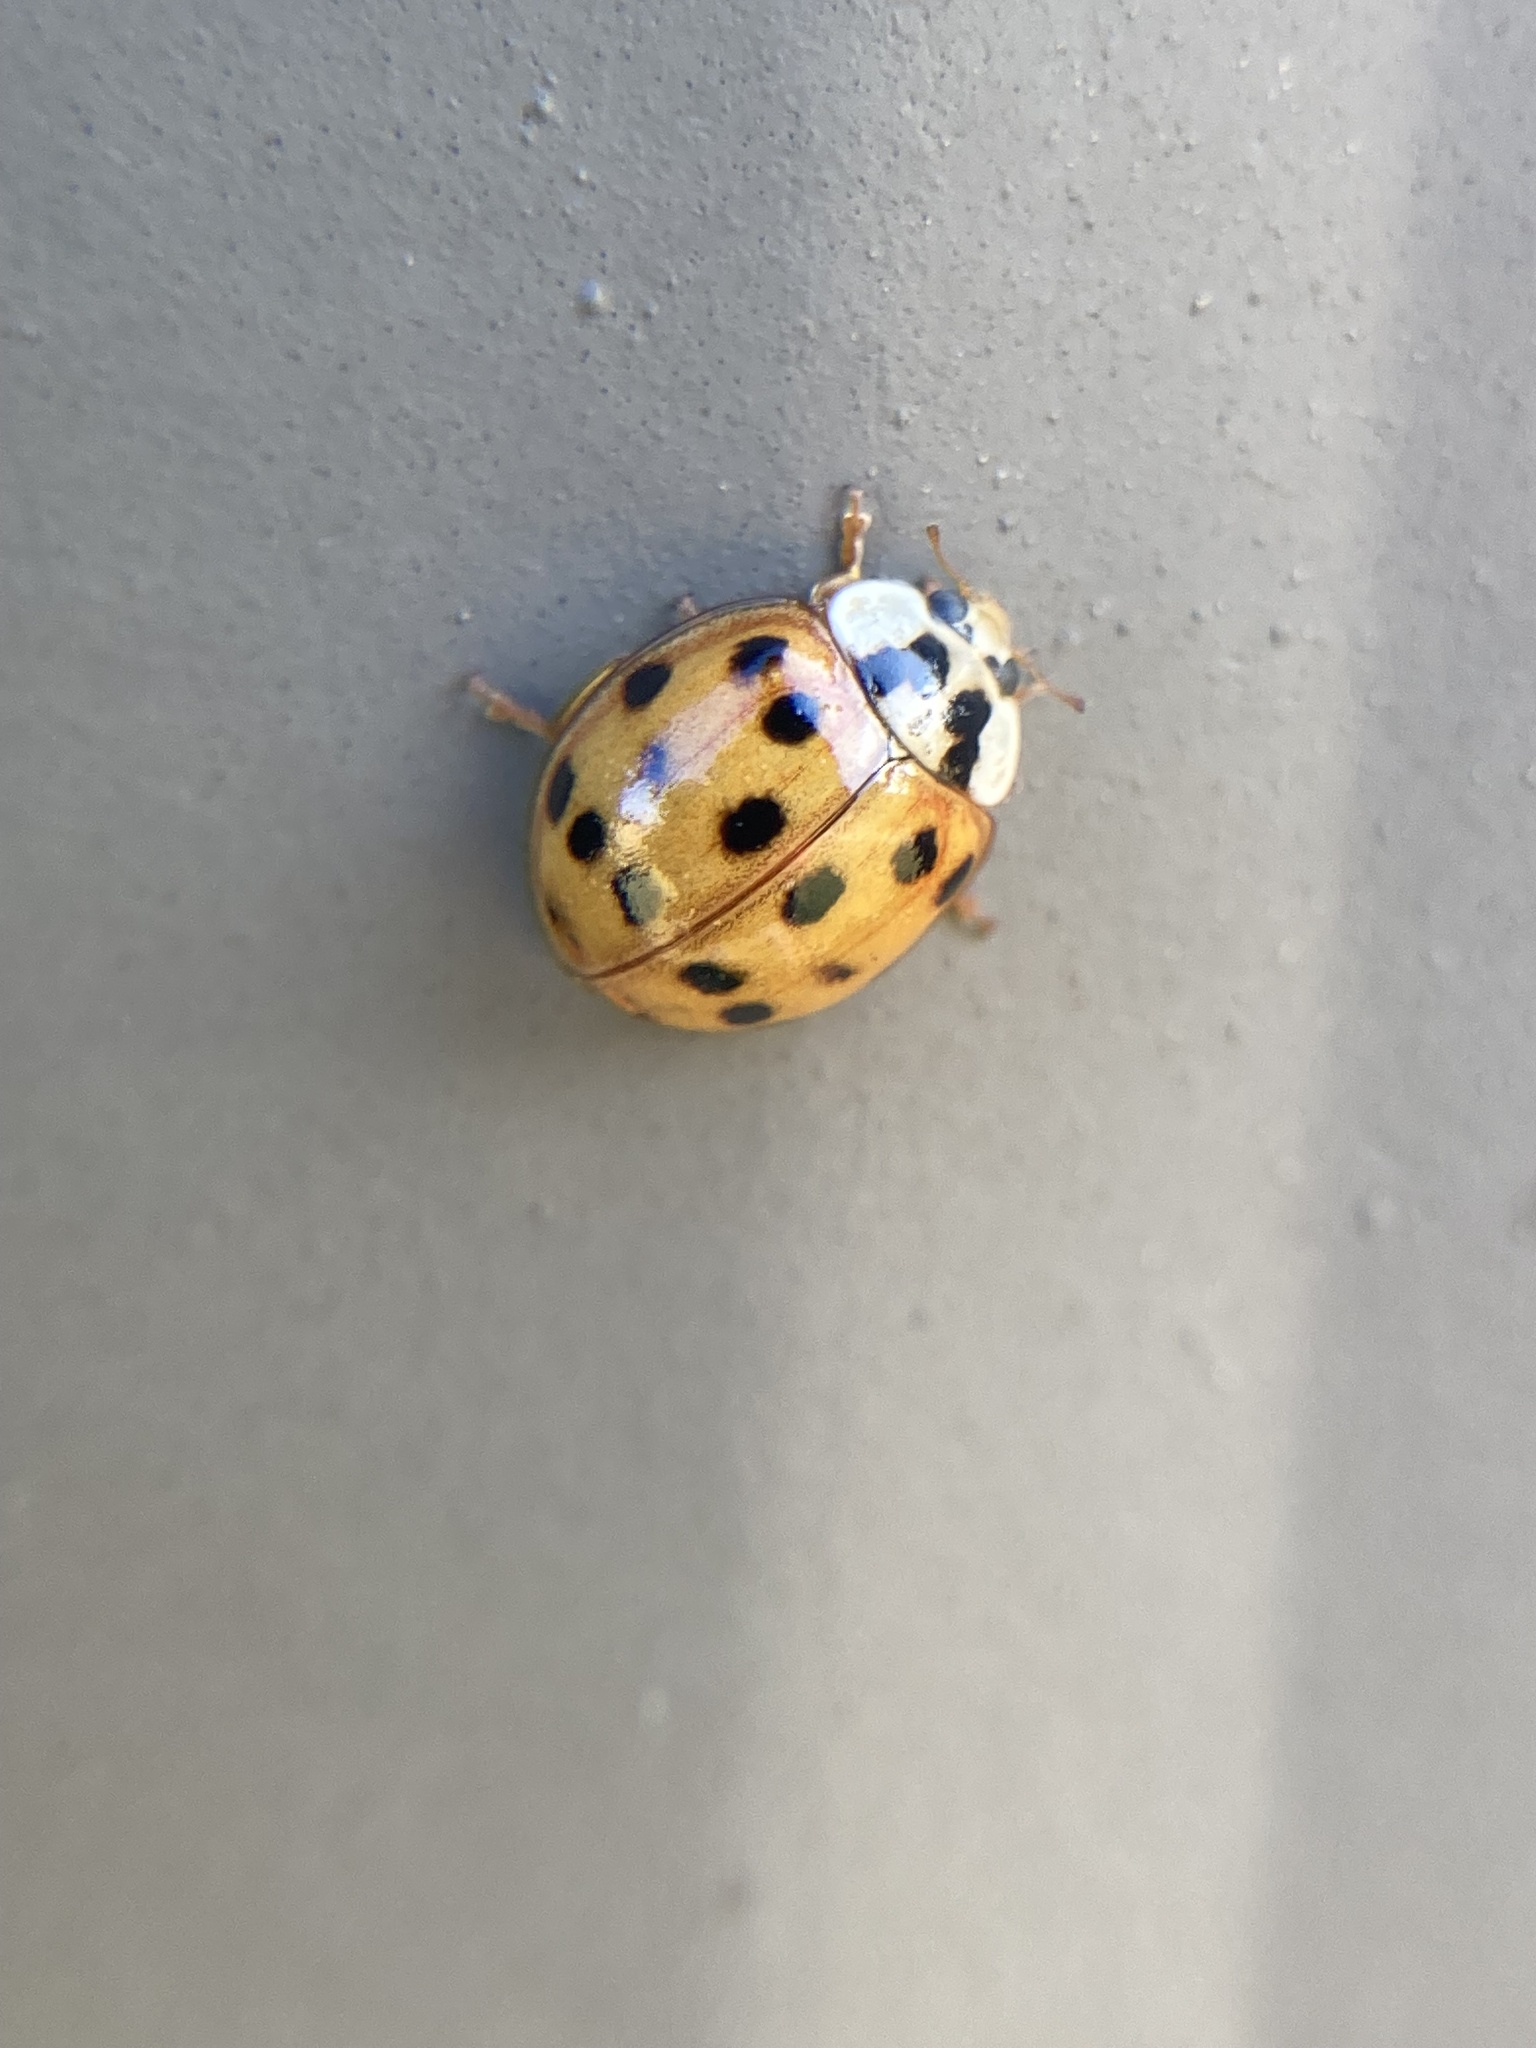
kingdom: Animalia
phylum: Arthropoda
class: Insecta
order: Coleoptera
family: Coccinellidae
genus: Harmonia
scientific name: Harmonia axyridis
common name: Harlequin ladybird
